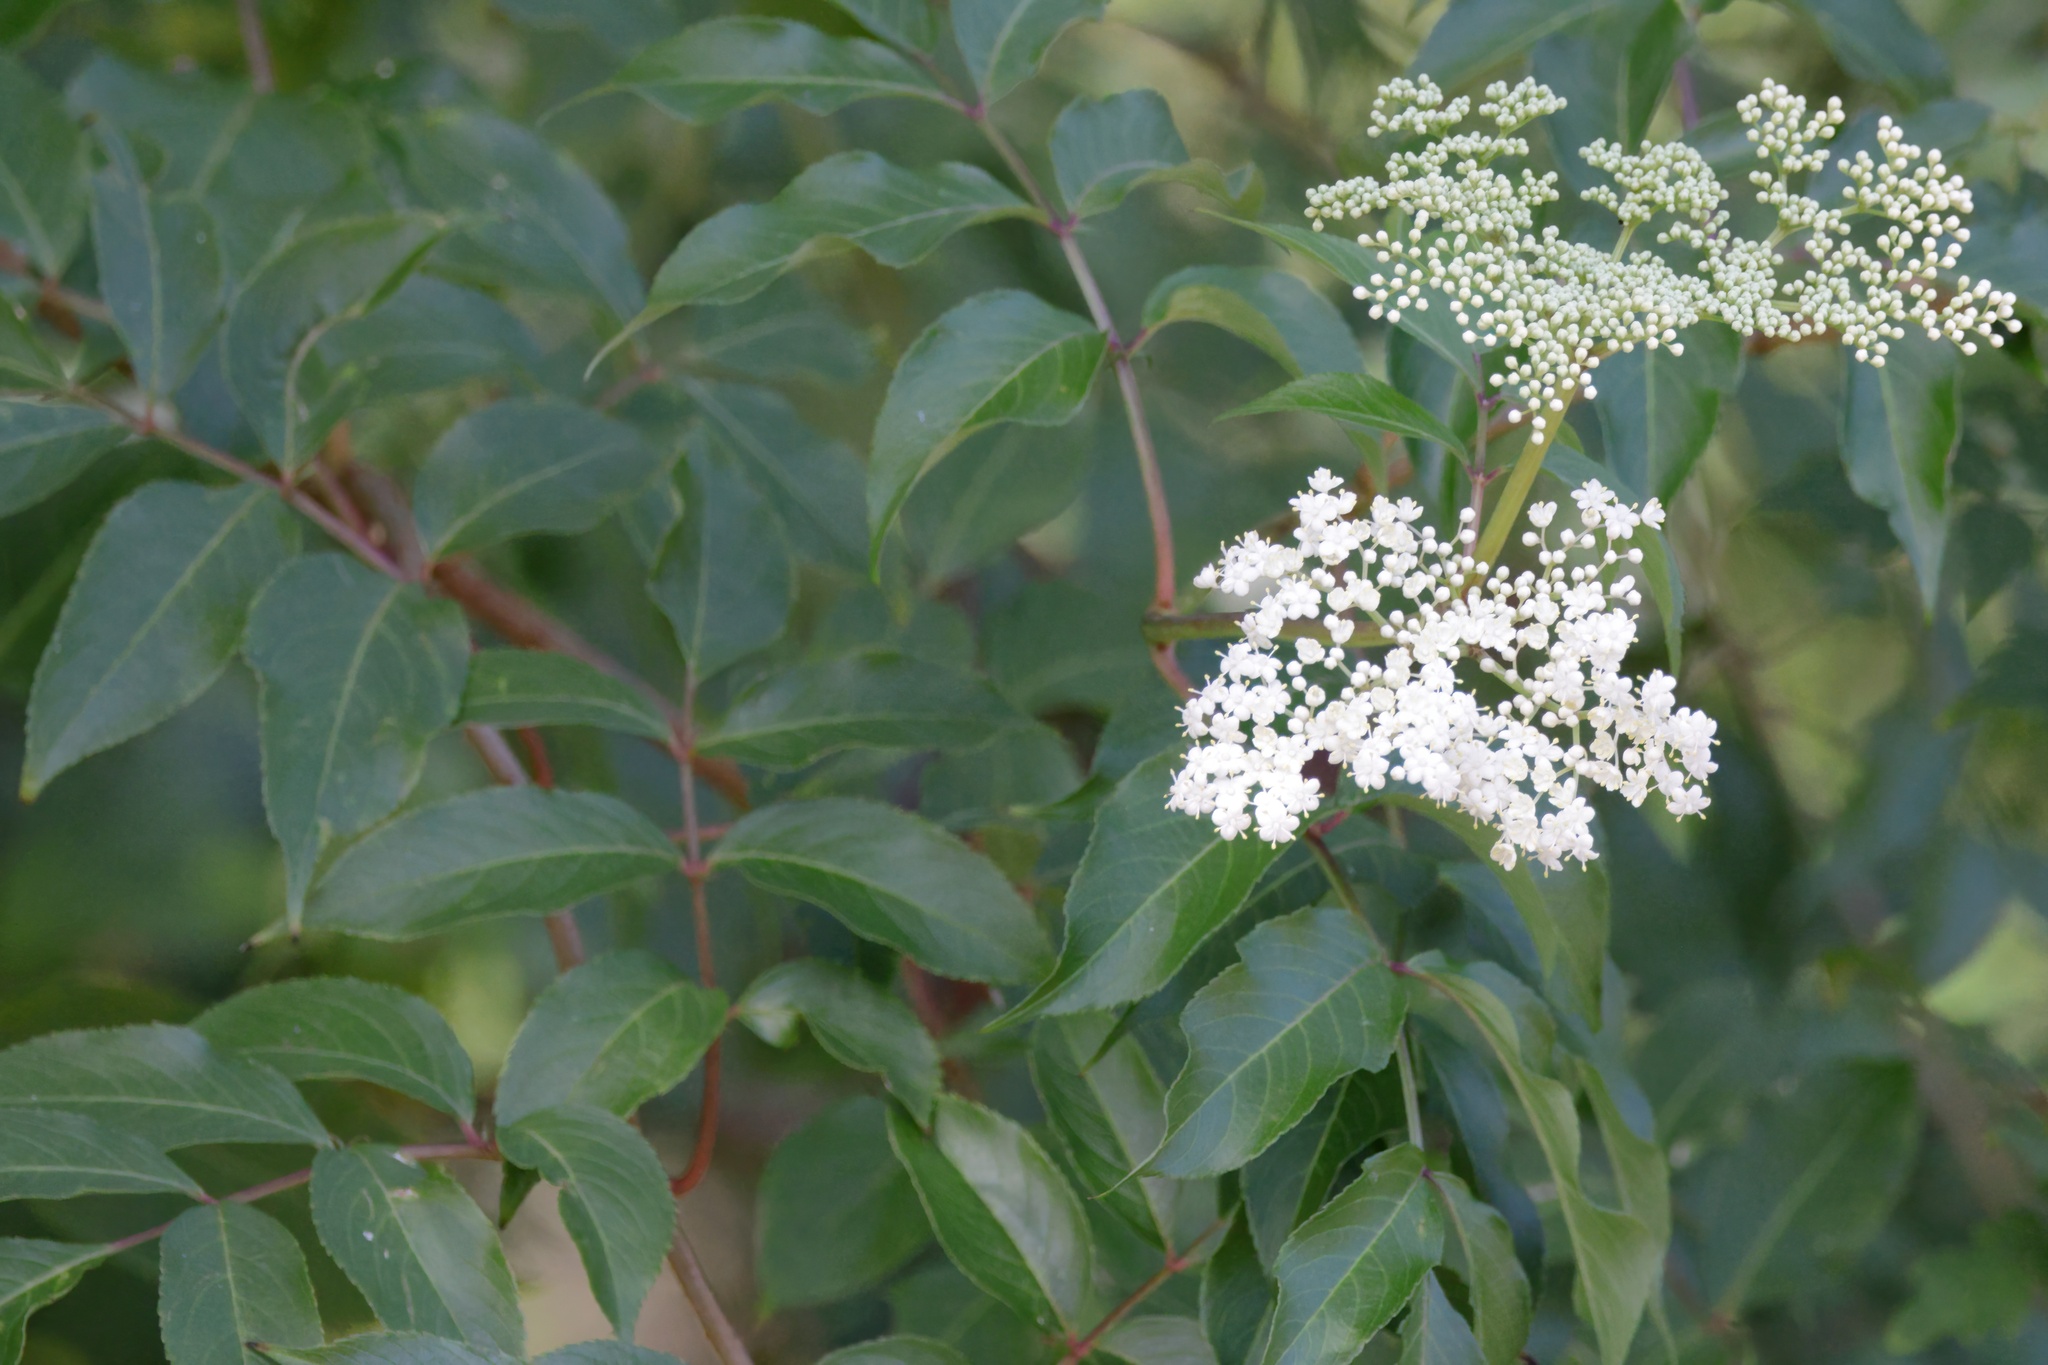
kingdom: Plantae
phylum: Tracheophyta
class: Magnoliopsida
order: Dipsacales
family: Viburnaceae
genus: Sambucus
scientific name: Sambucus canadensis
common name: American elder
